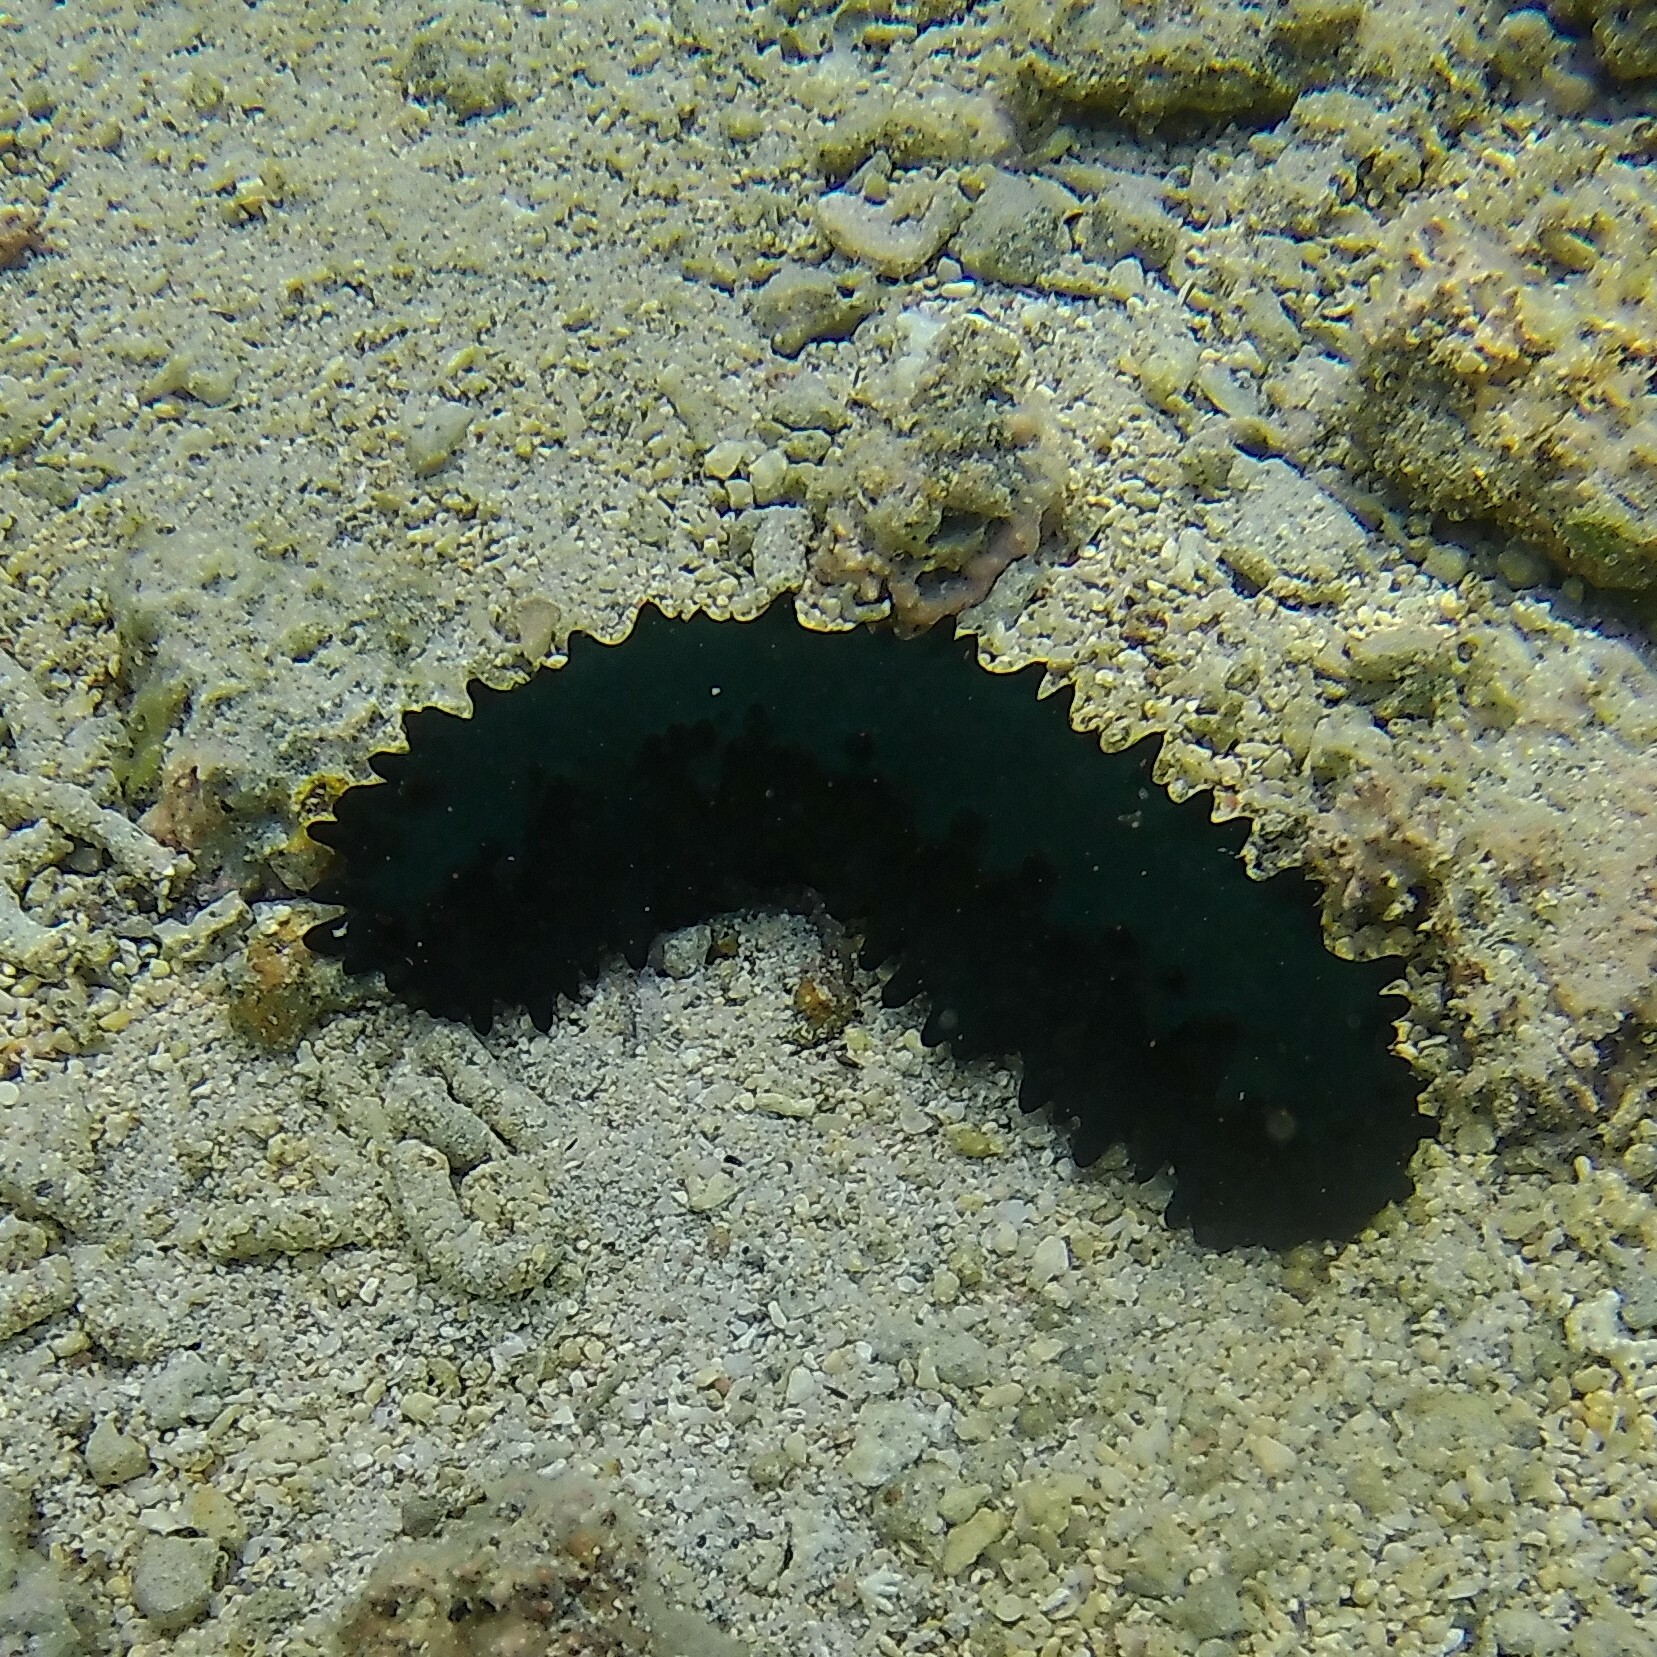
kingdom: Animalia
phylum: Echinodermata
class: Holothuroidea
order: Synallactida
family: Stichopodidae
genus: Stichopus
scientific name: Stichopus chloronotus
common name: Greenfish
